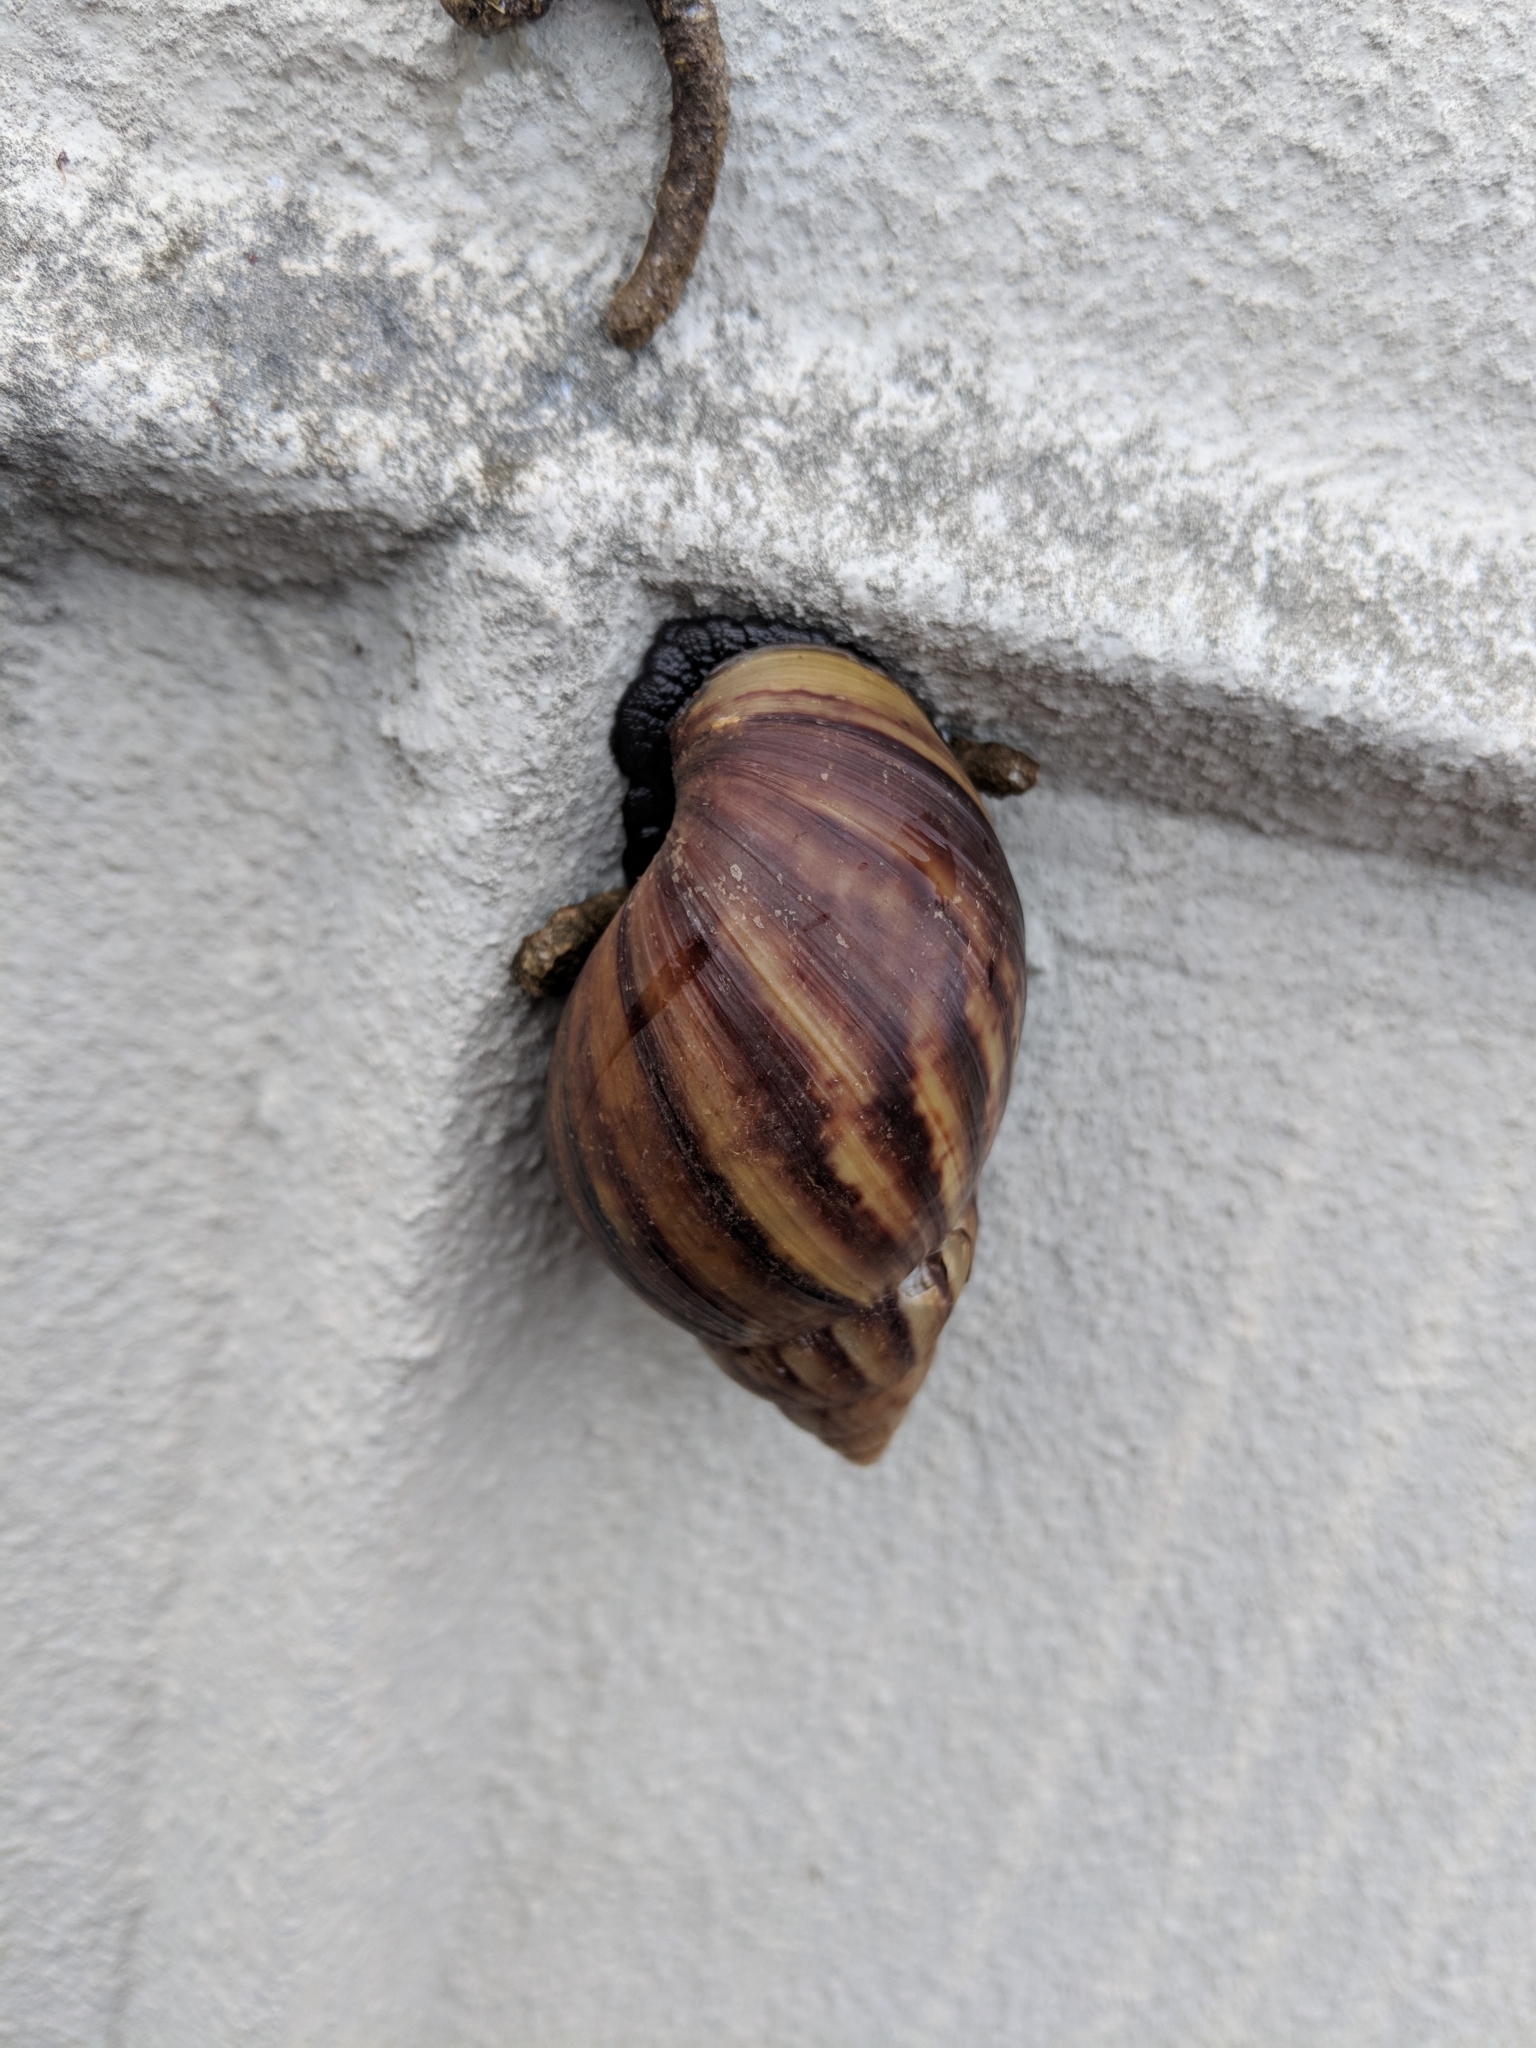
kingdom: Animalia
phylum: Mollusca
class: Gastropoda
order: Stylommatophora
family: Achatinidae
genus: Lissachatina
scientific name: Lissachatina fulica
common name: Giant african snail
